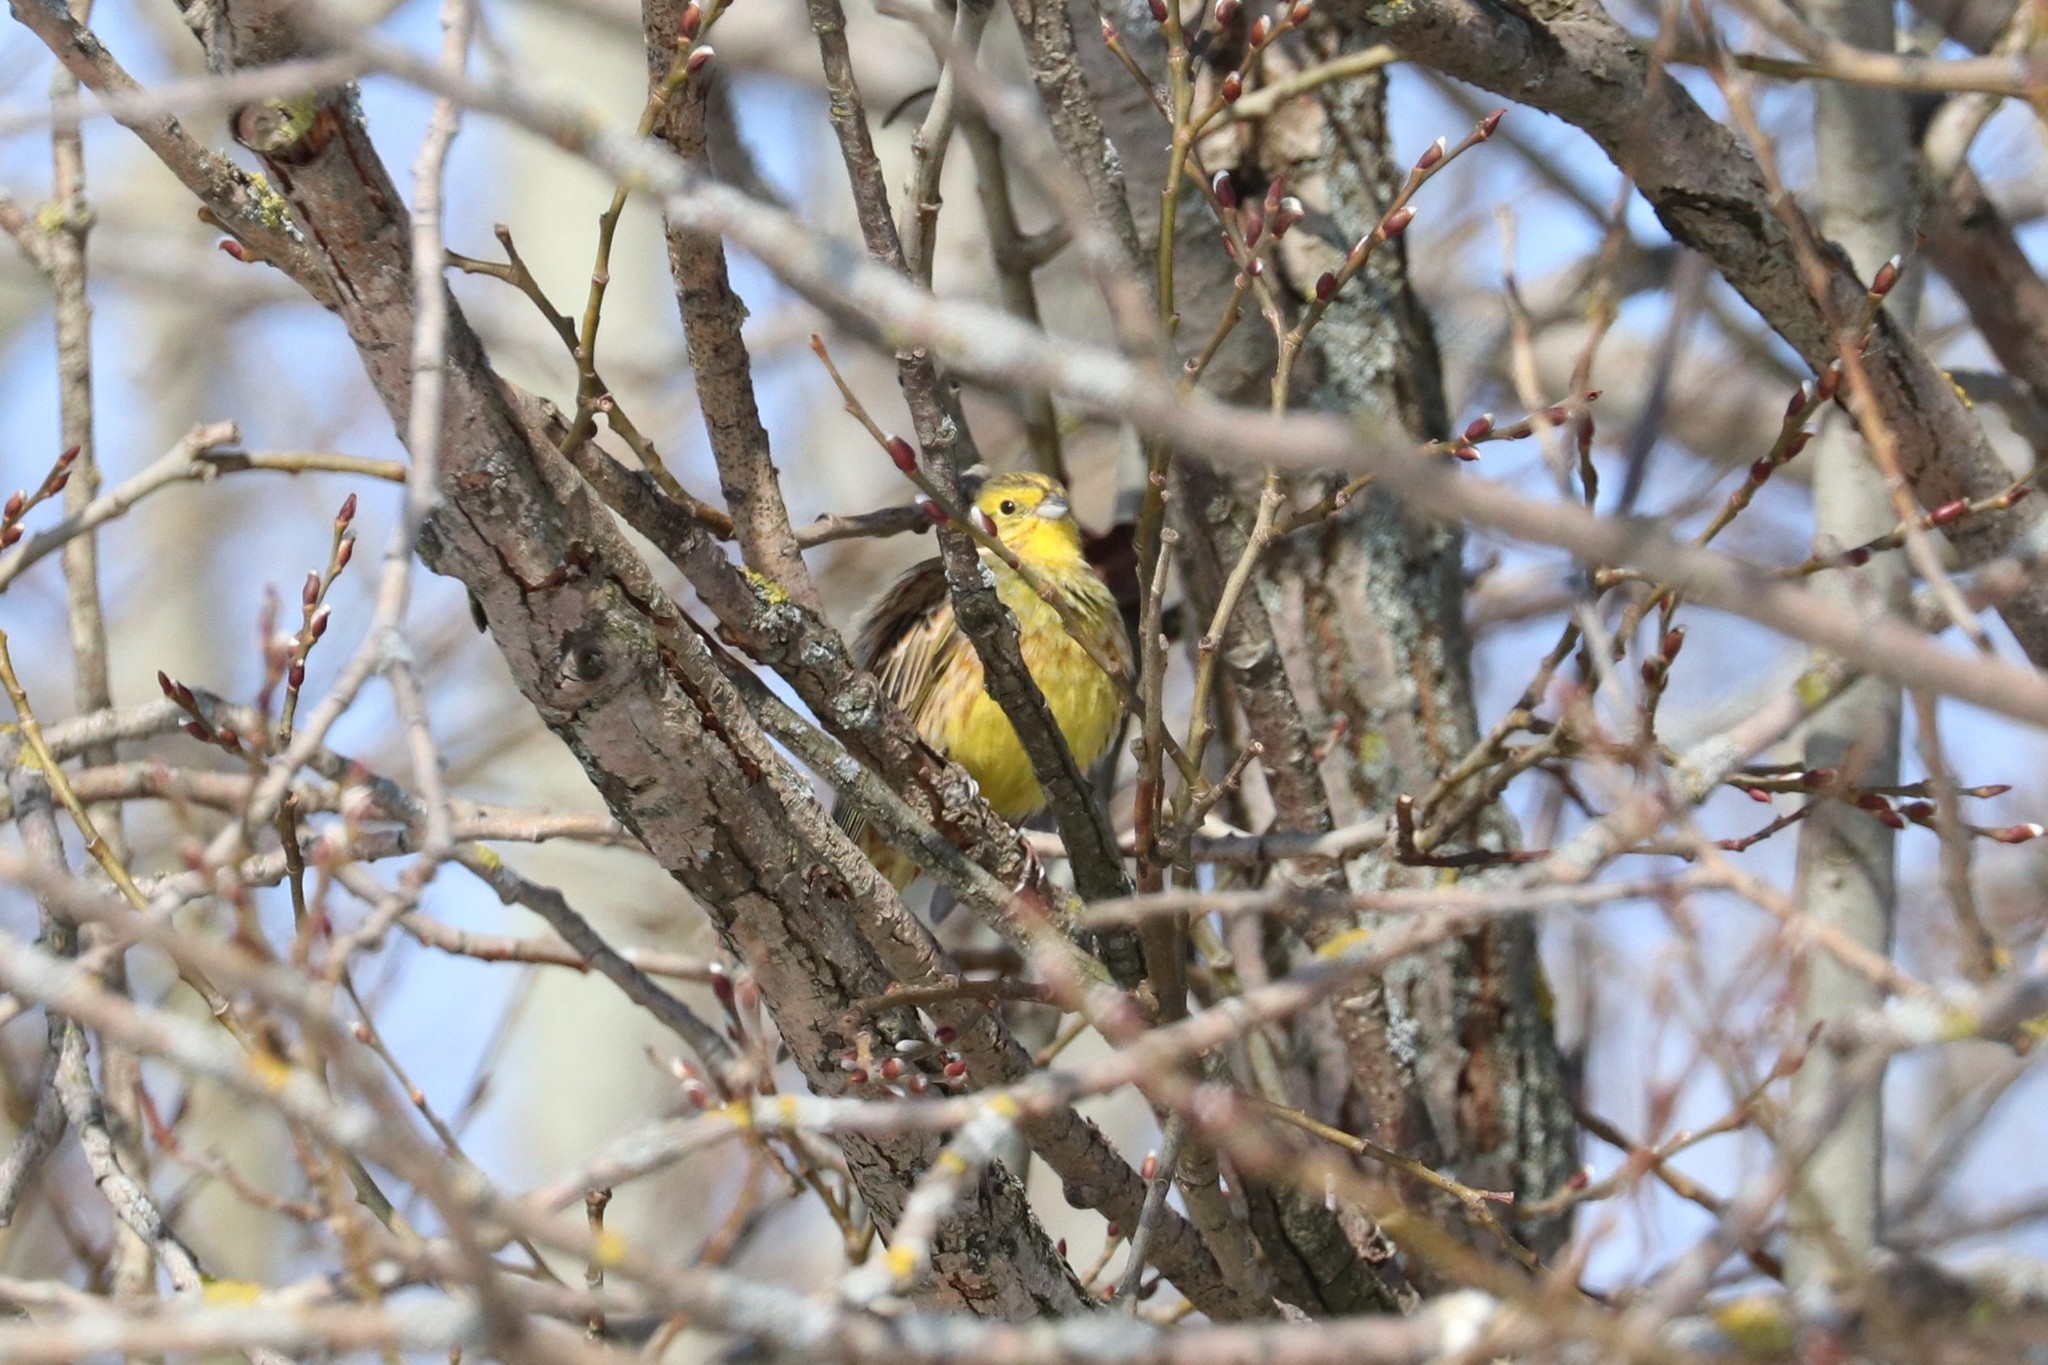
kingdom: Animalia
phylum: Chordata
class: Aves
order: Passeriformes
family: Emberizidae
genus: Emberiza
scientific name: Emberiza citrinella
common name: Yellowhammer
